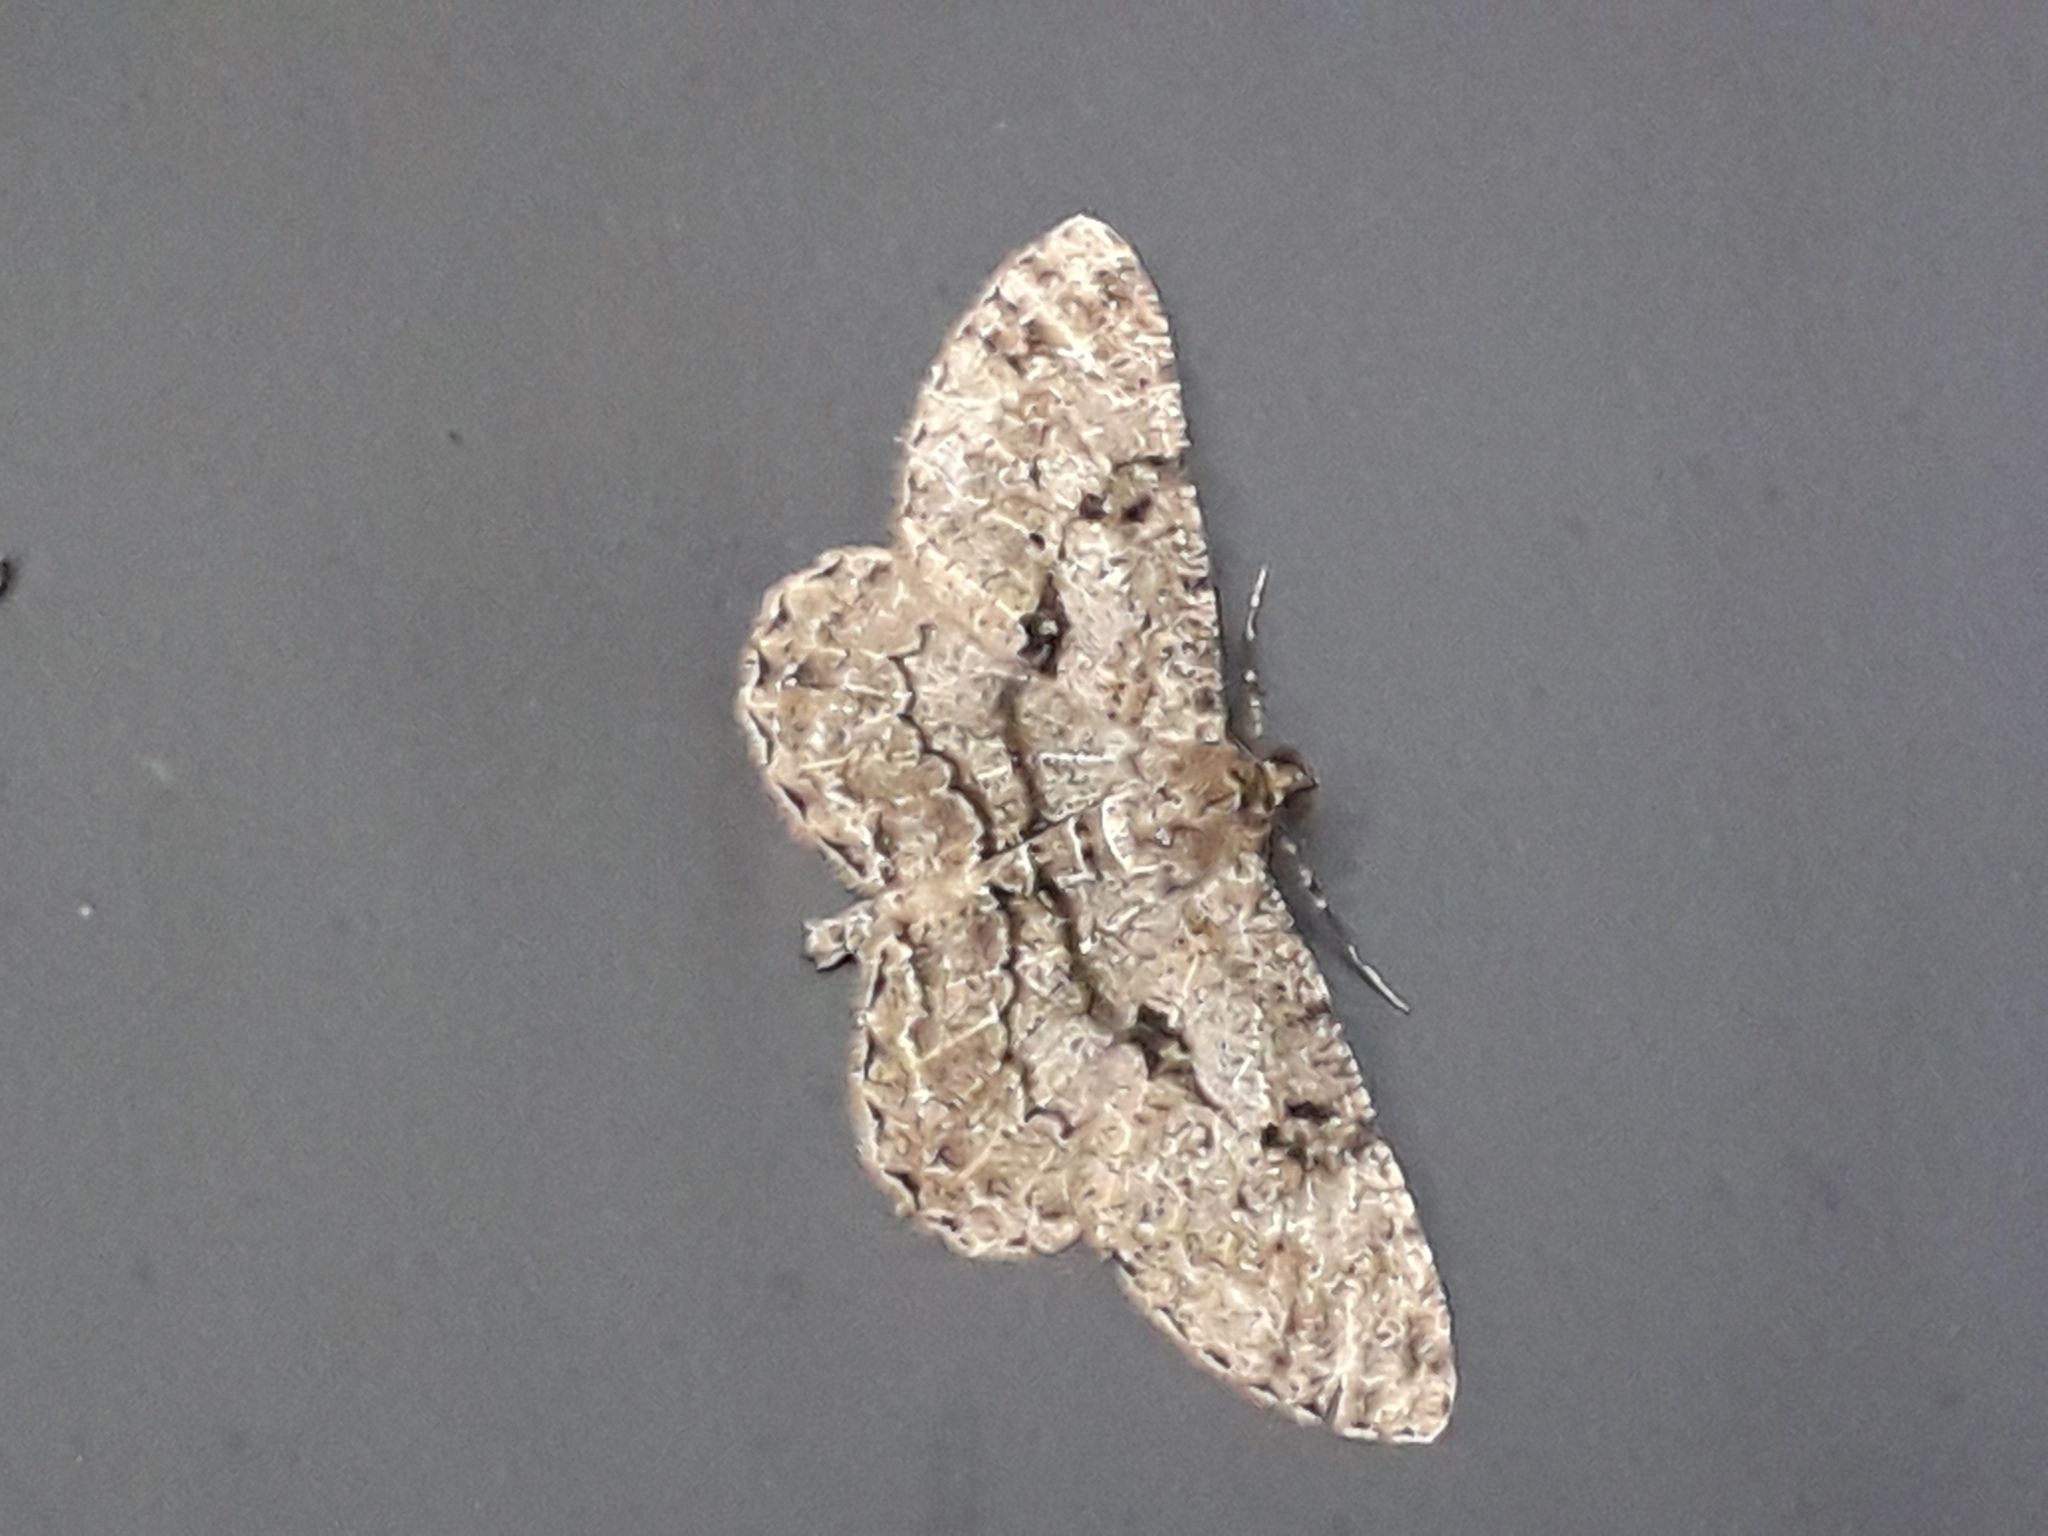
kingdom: Animalia
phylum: Arthropoda
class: Insecta
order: Lepidoptera
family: Geometridae
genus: Peribatodes
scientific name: Peribatodes rhomboidaria
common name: Willow beauty
